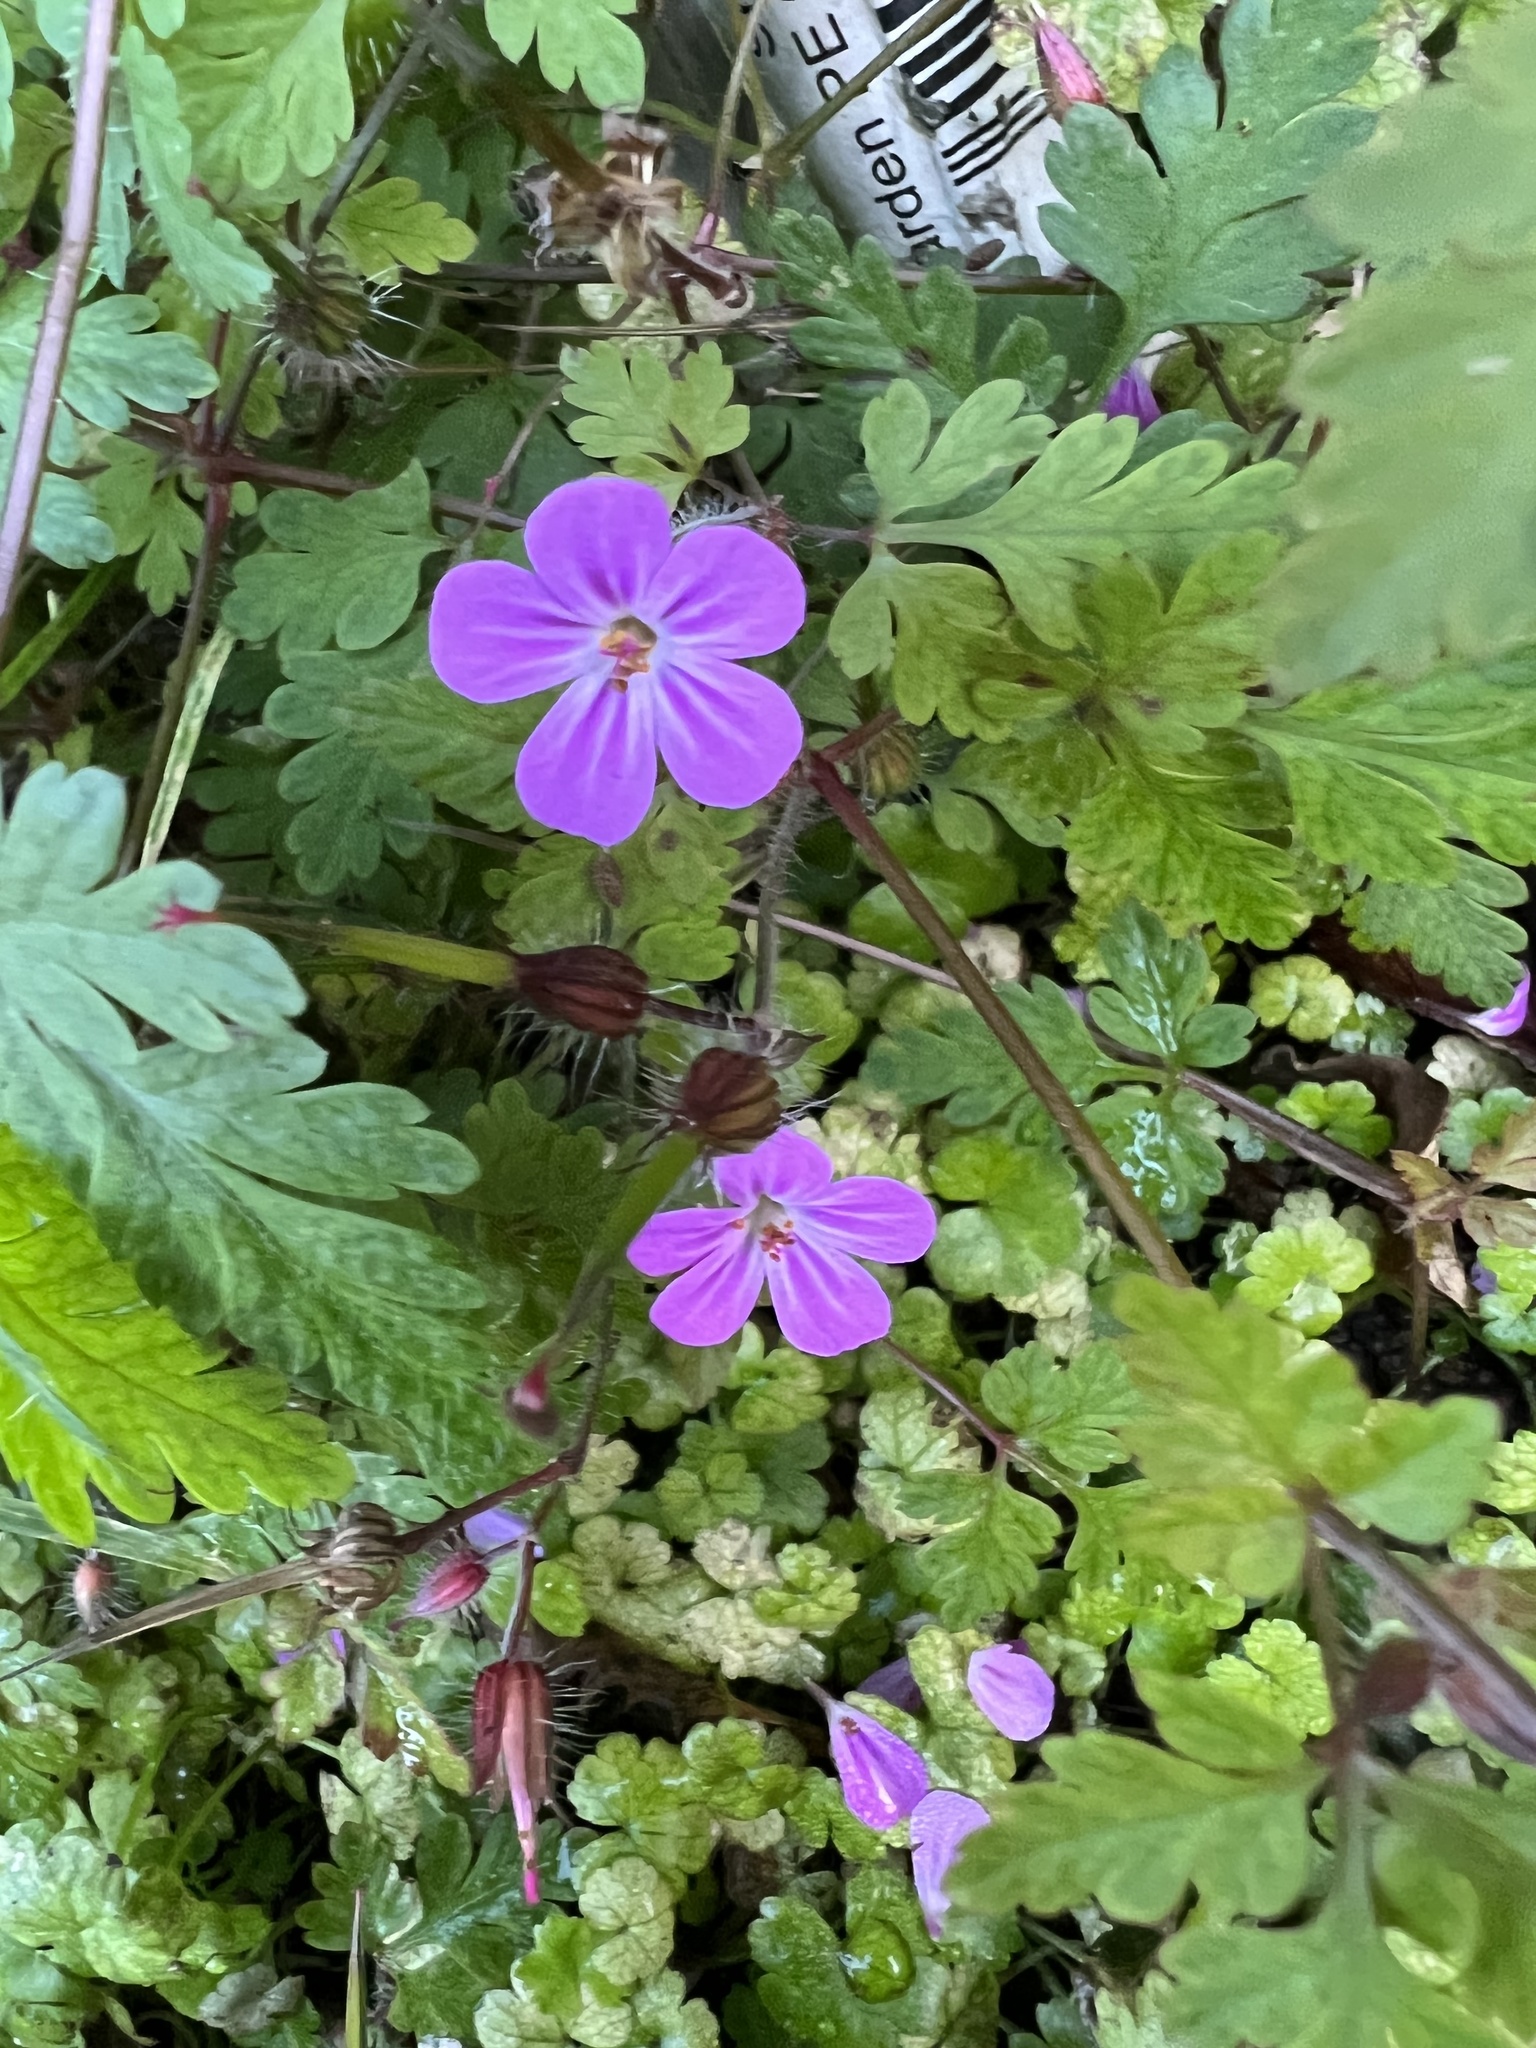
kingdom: Plantae
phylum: Tracheophyta
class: Magnoliopsida
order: Geraniales
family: Geraniaceae
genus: Geranium
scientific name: Geranium robertianum
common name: Herb-robert
